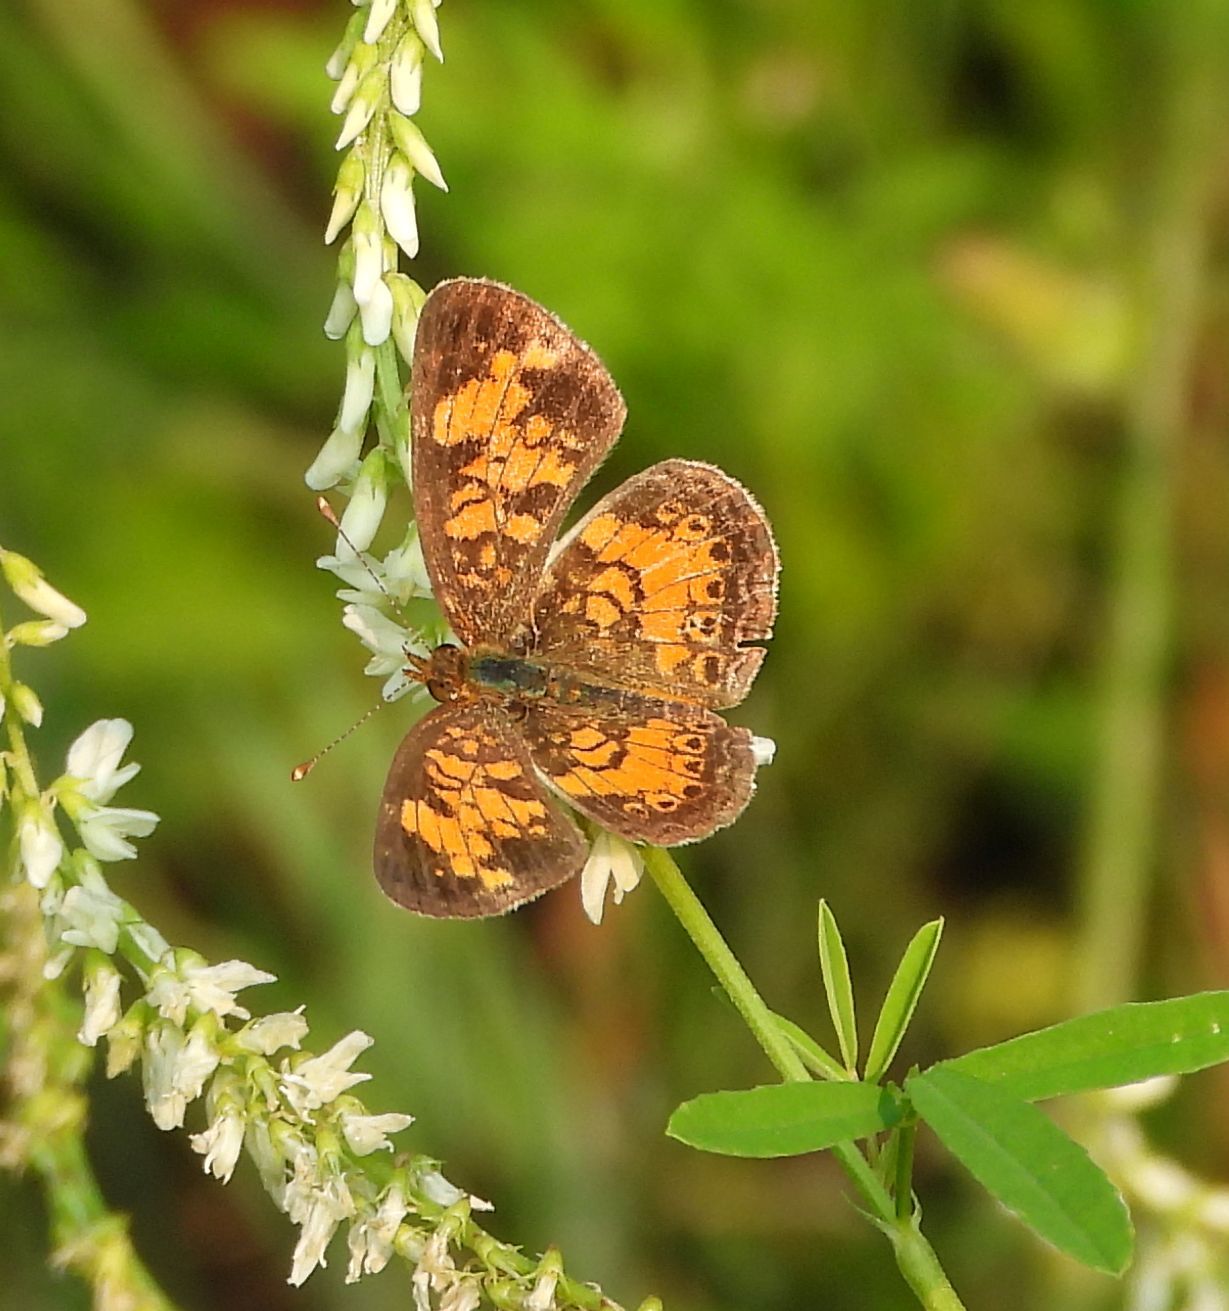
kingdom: Animalia
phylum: Arthropoda
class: Insecta
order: Lepidoptera
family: Nymphalidae
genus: Phyciodes
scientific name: Phyciodes tharos
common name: Pearl crescent
